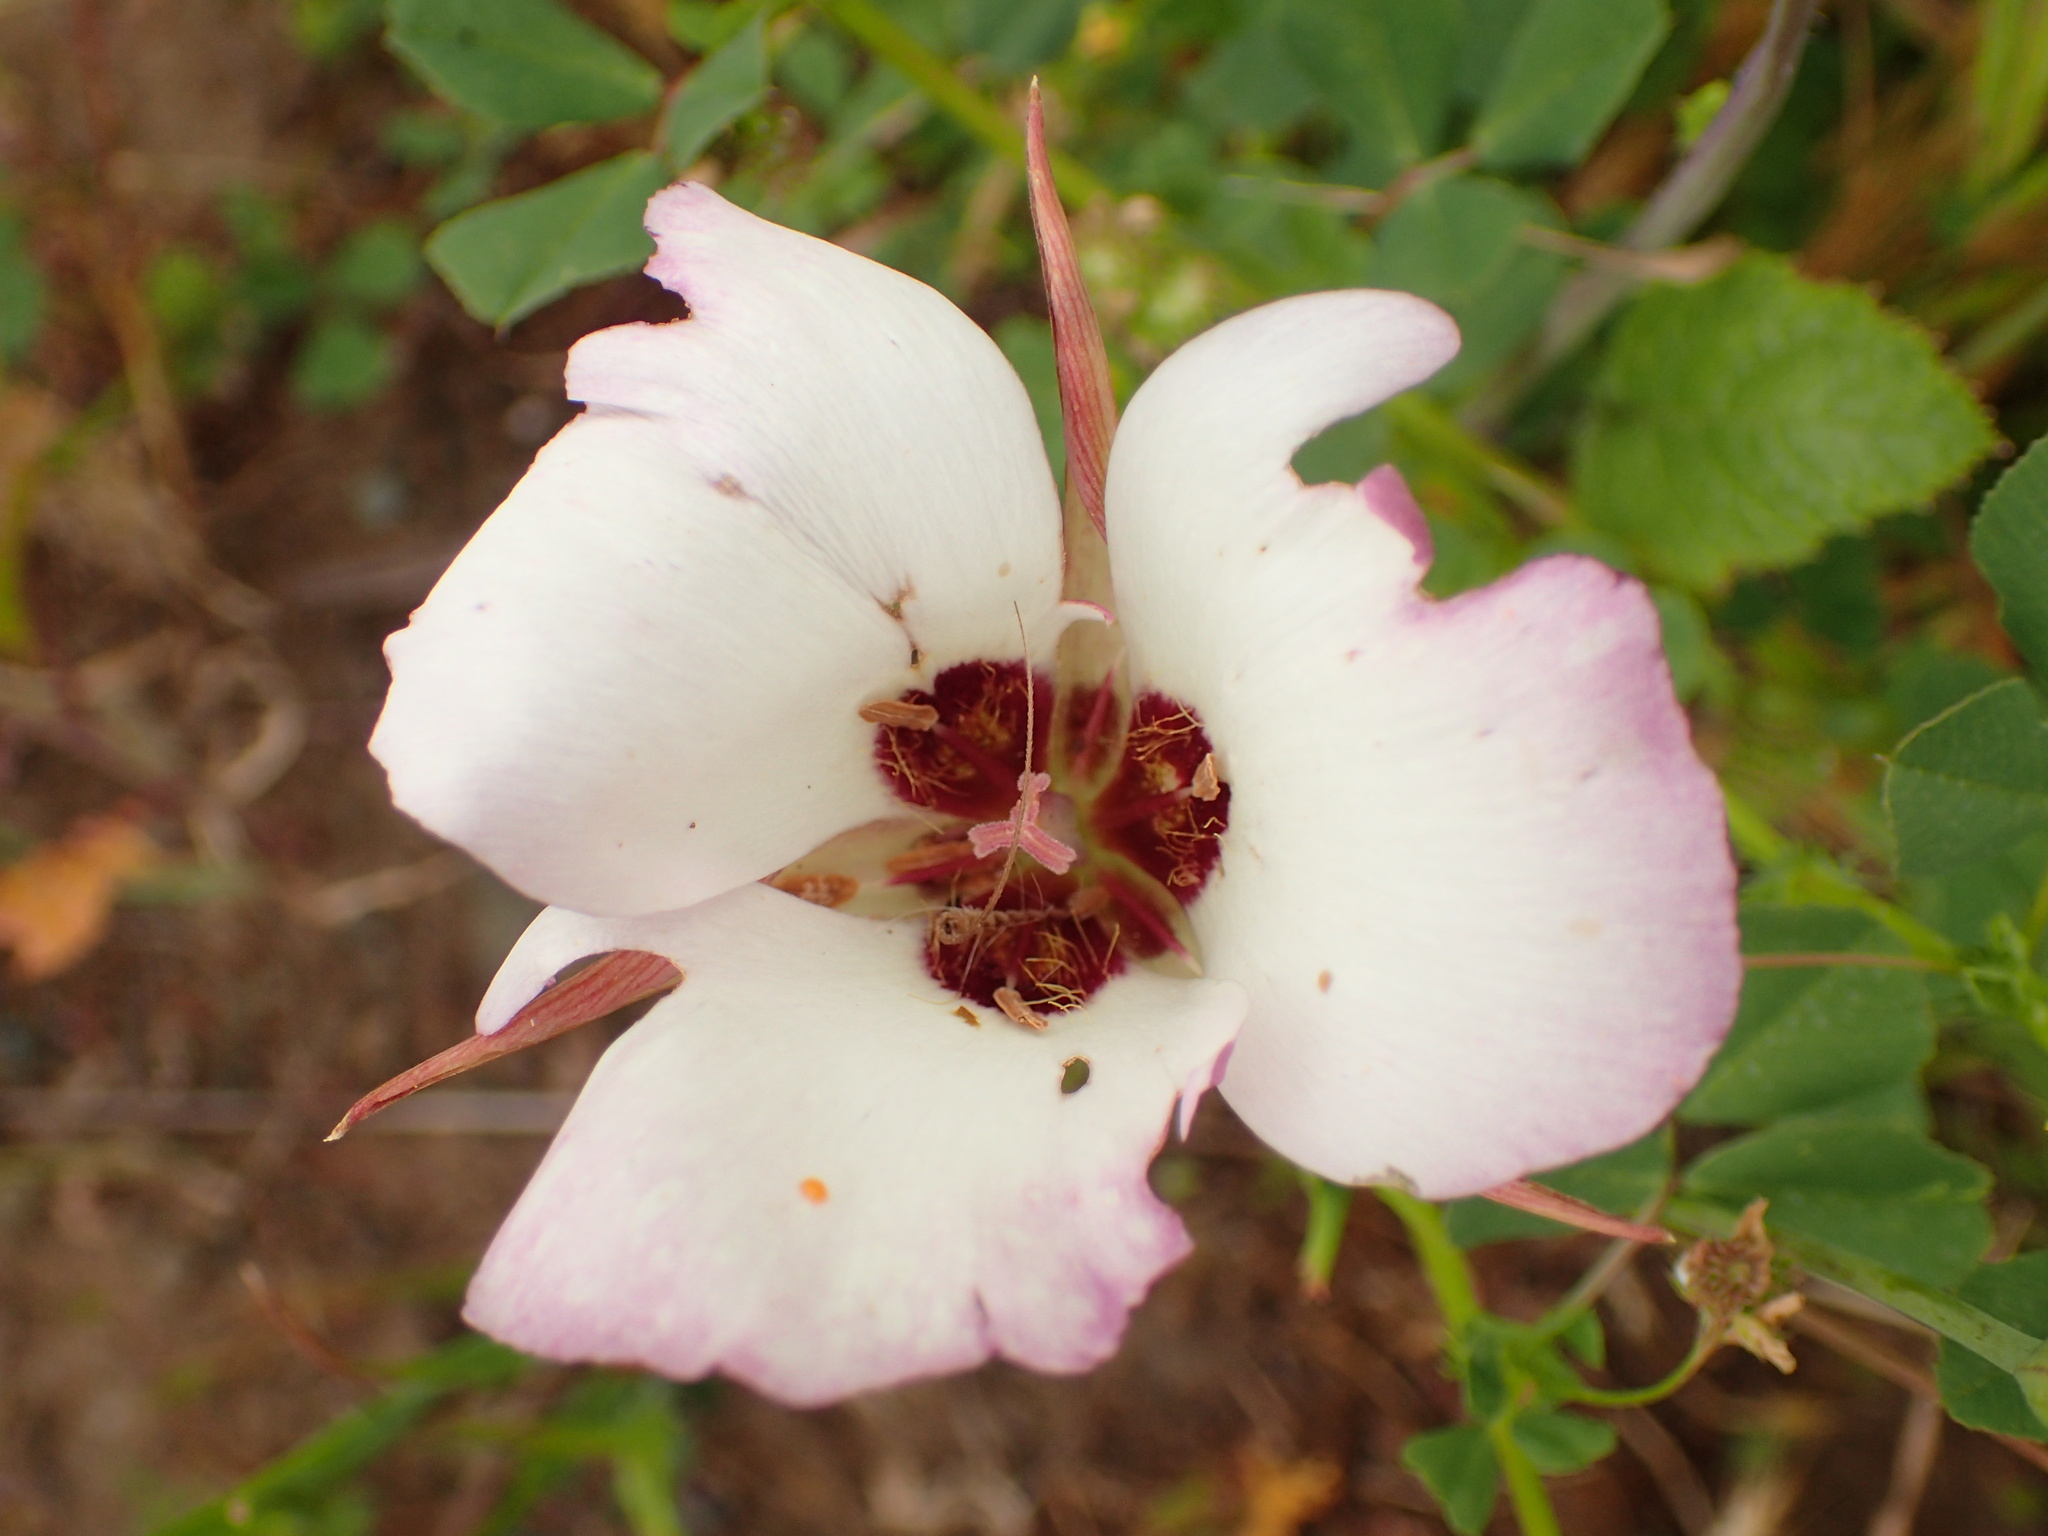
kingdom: Plantae
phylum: Tracheophyta
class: Liliopsida
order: Liliales
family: Liliaceae
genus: Calochortus
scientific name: Calochortus catalinae
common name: Catalina mariposa-lily
